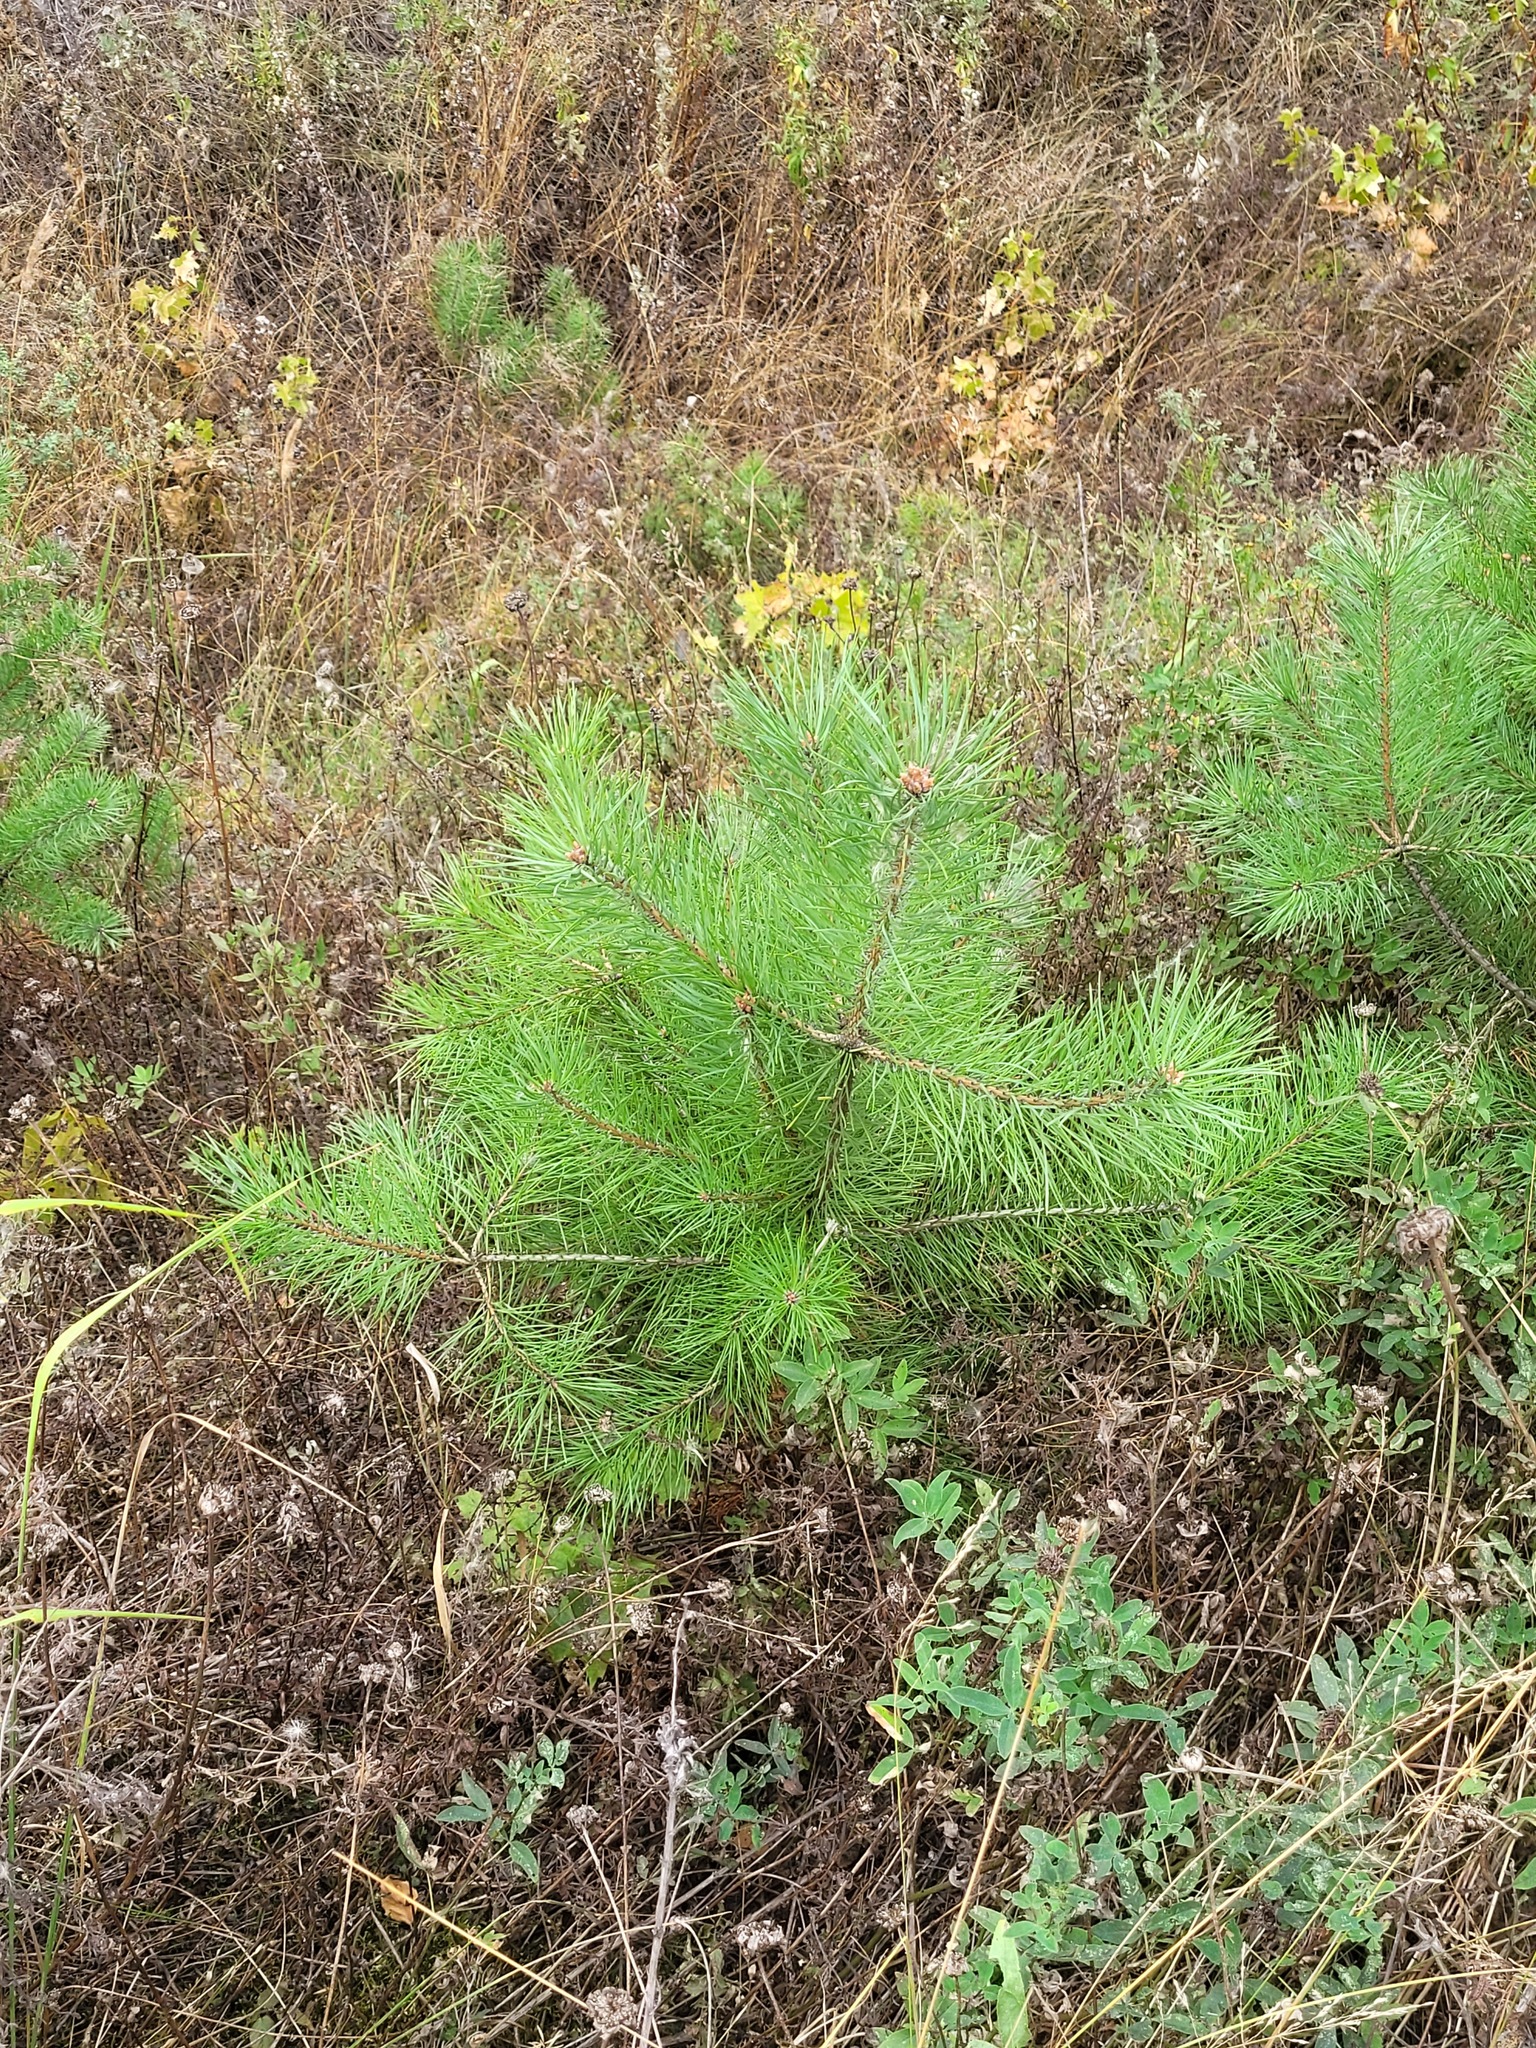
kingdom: Plantae
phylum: Tracheophyta
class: Pinopsida
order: Pinales
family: Pinaceae
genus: Pinus
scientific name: Pinus sylvestris
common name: Scots pine
